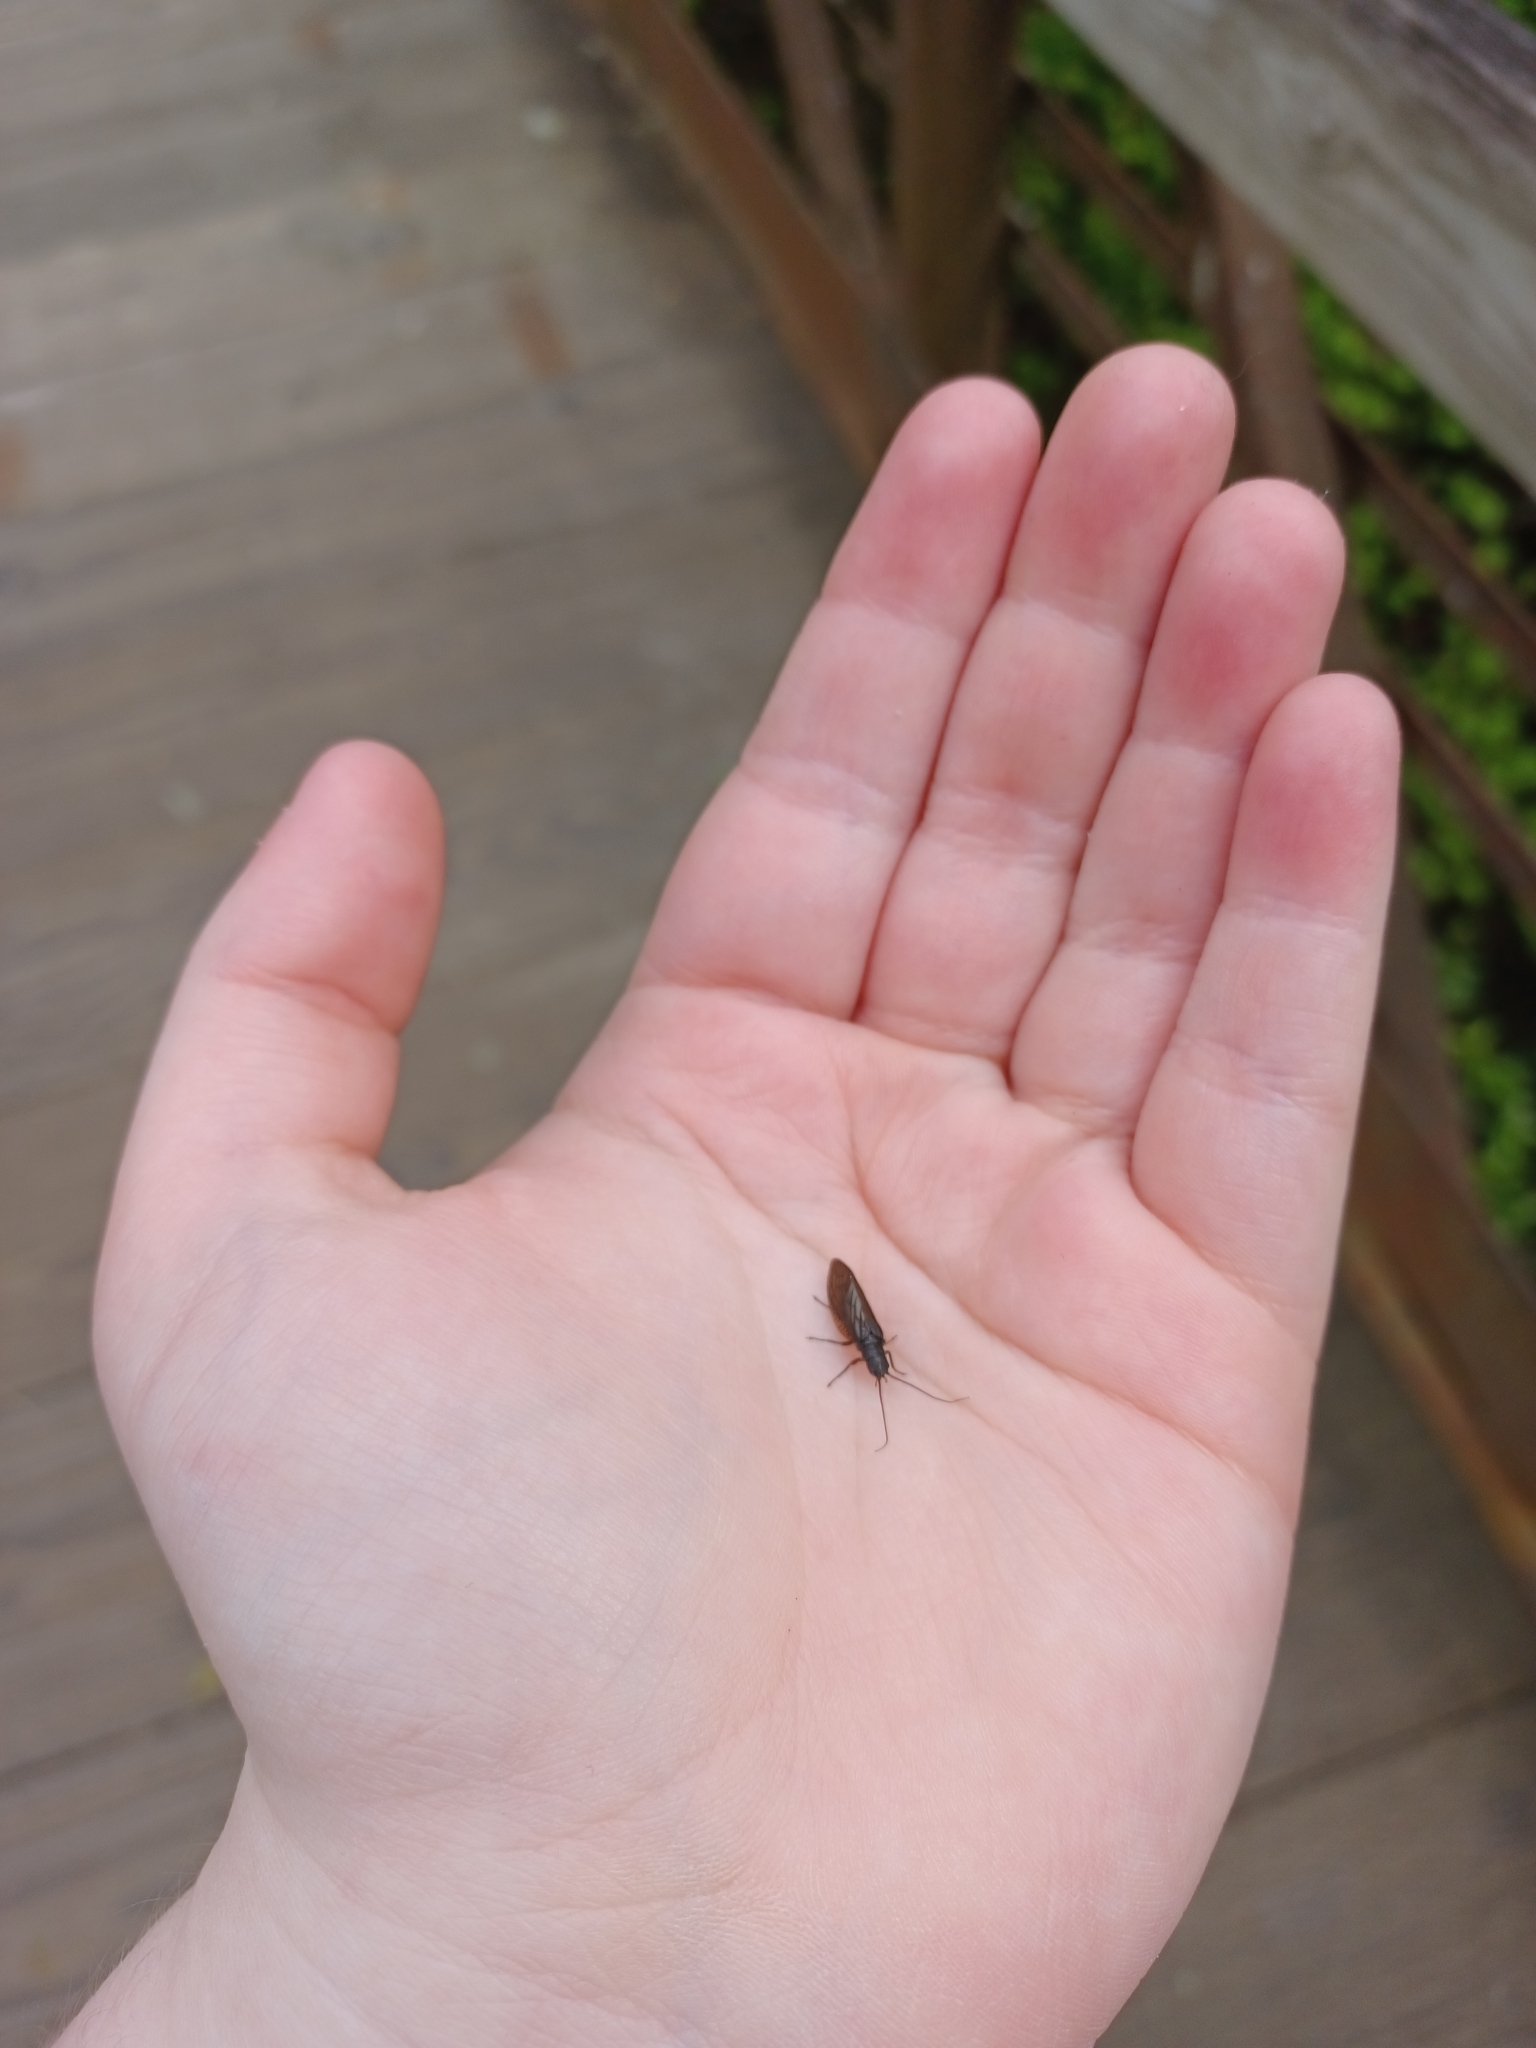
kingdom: Animalia
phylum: Arthropoda
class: Insecta
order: Megaloptera
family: Sialidae
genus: Sialis
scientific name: Sialis
